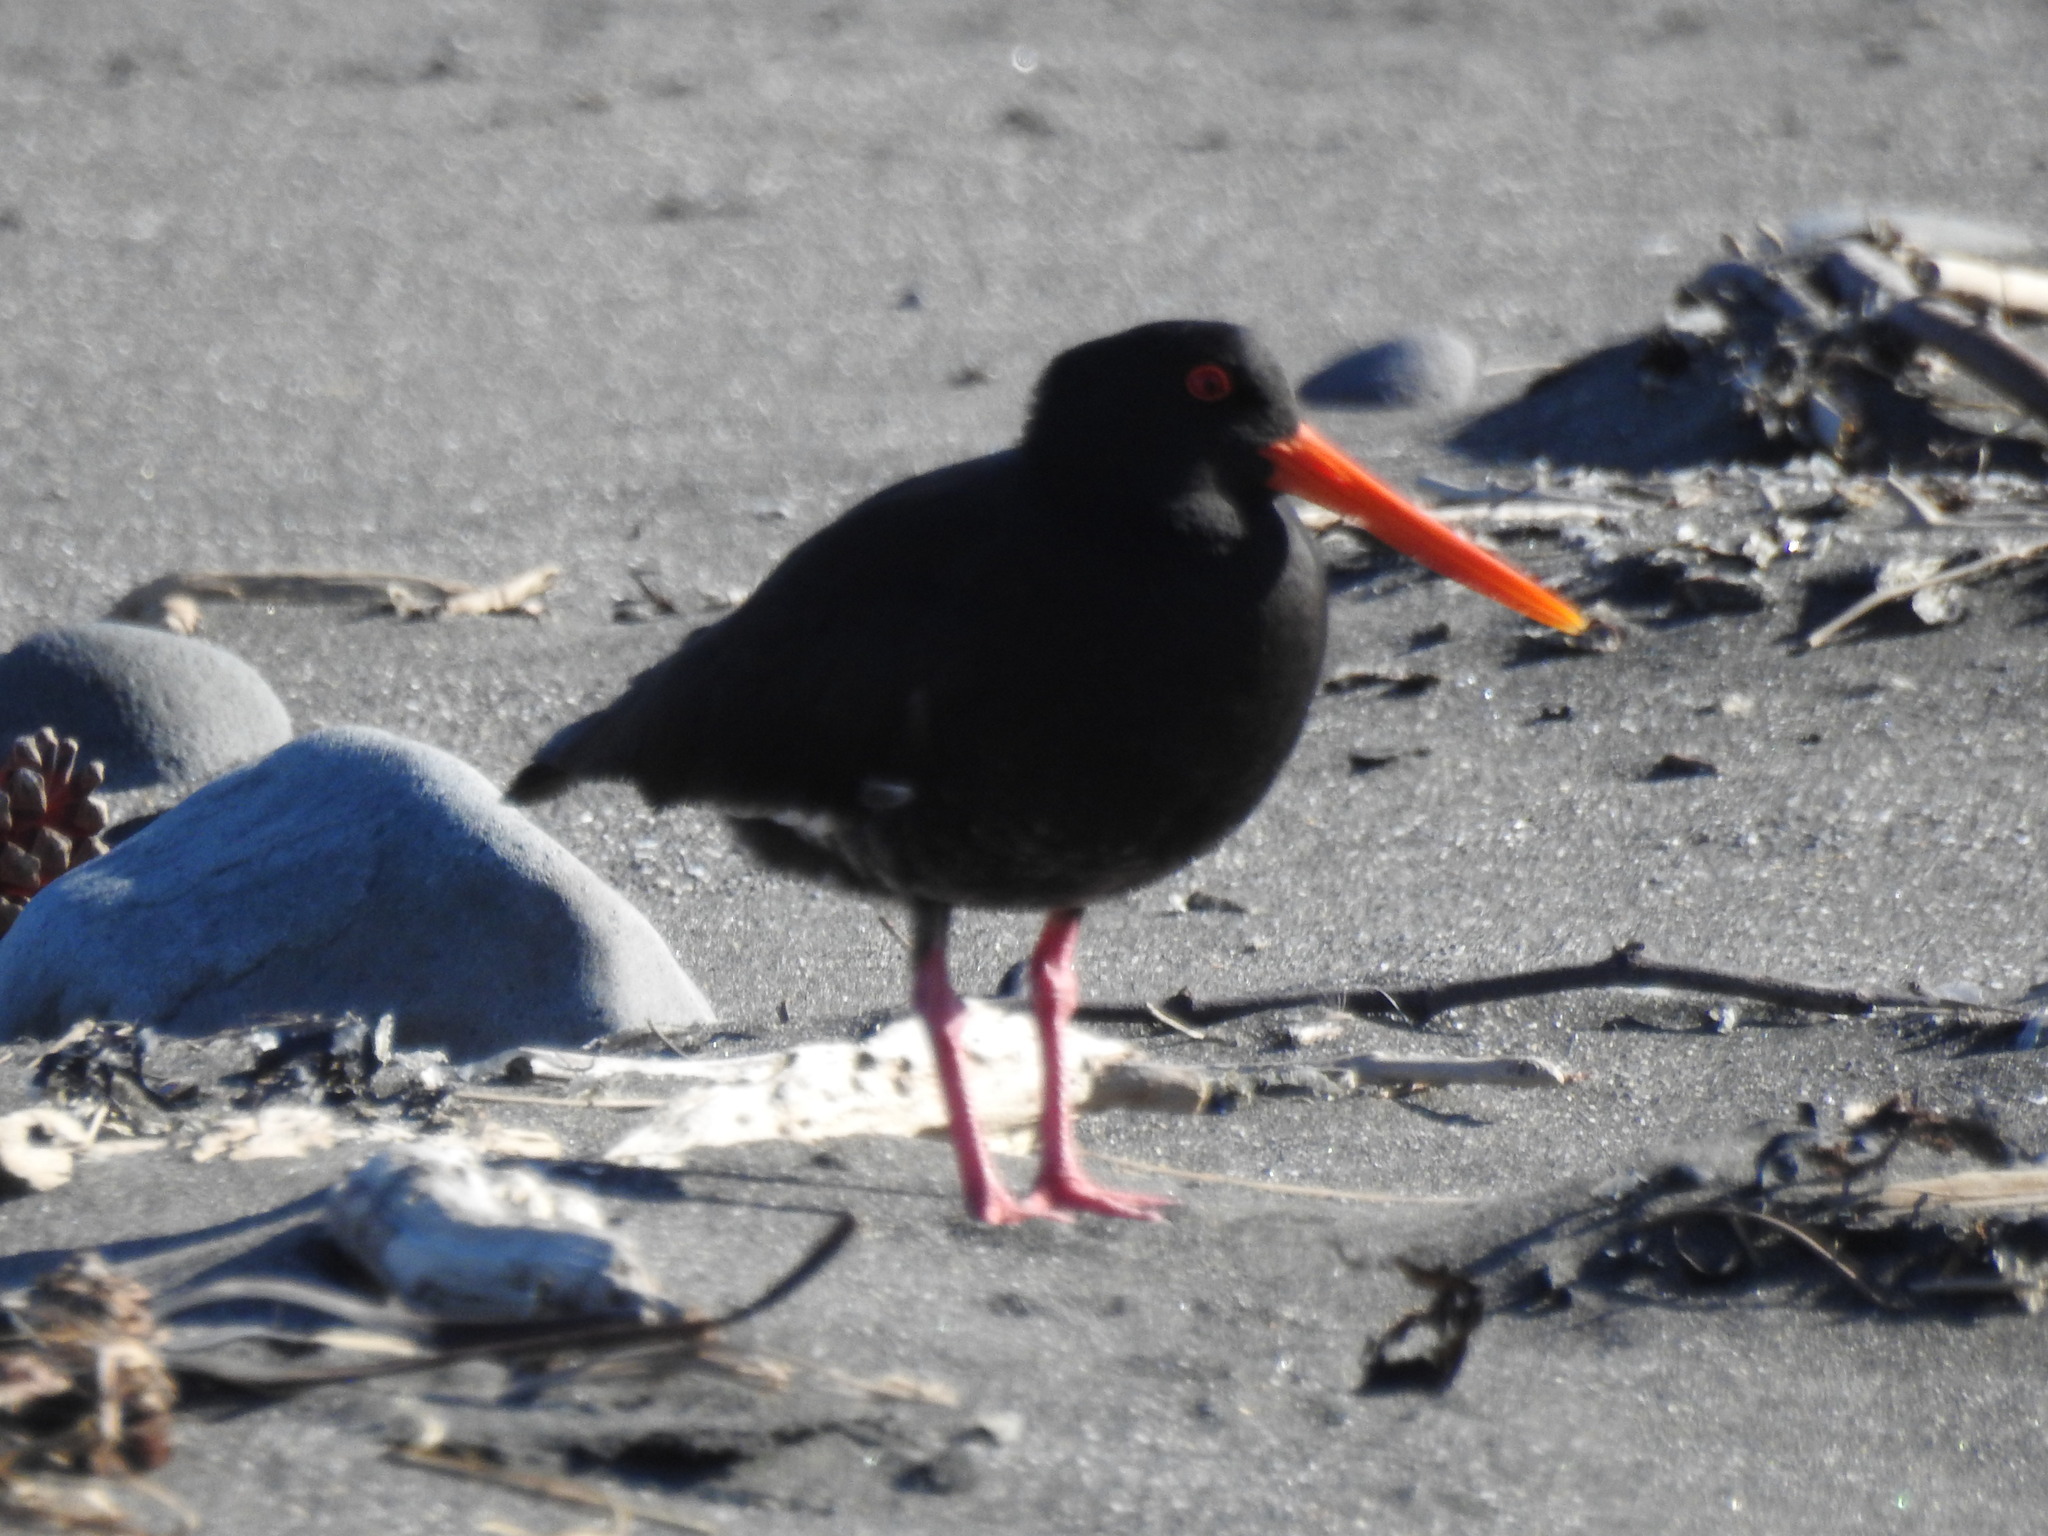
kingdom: Animalia
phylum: Chordata
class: Aves
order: Charadriiformes
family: Haematopodidae
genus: Haematopus
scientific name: Haematopus unicolor
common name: Variable oystercatcher
